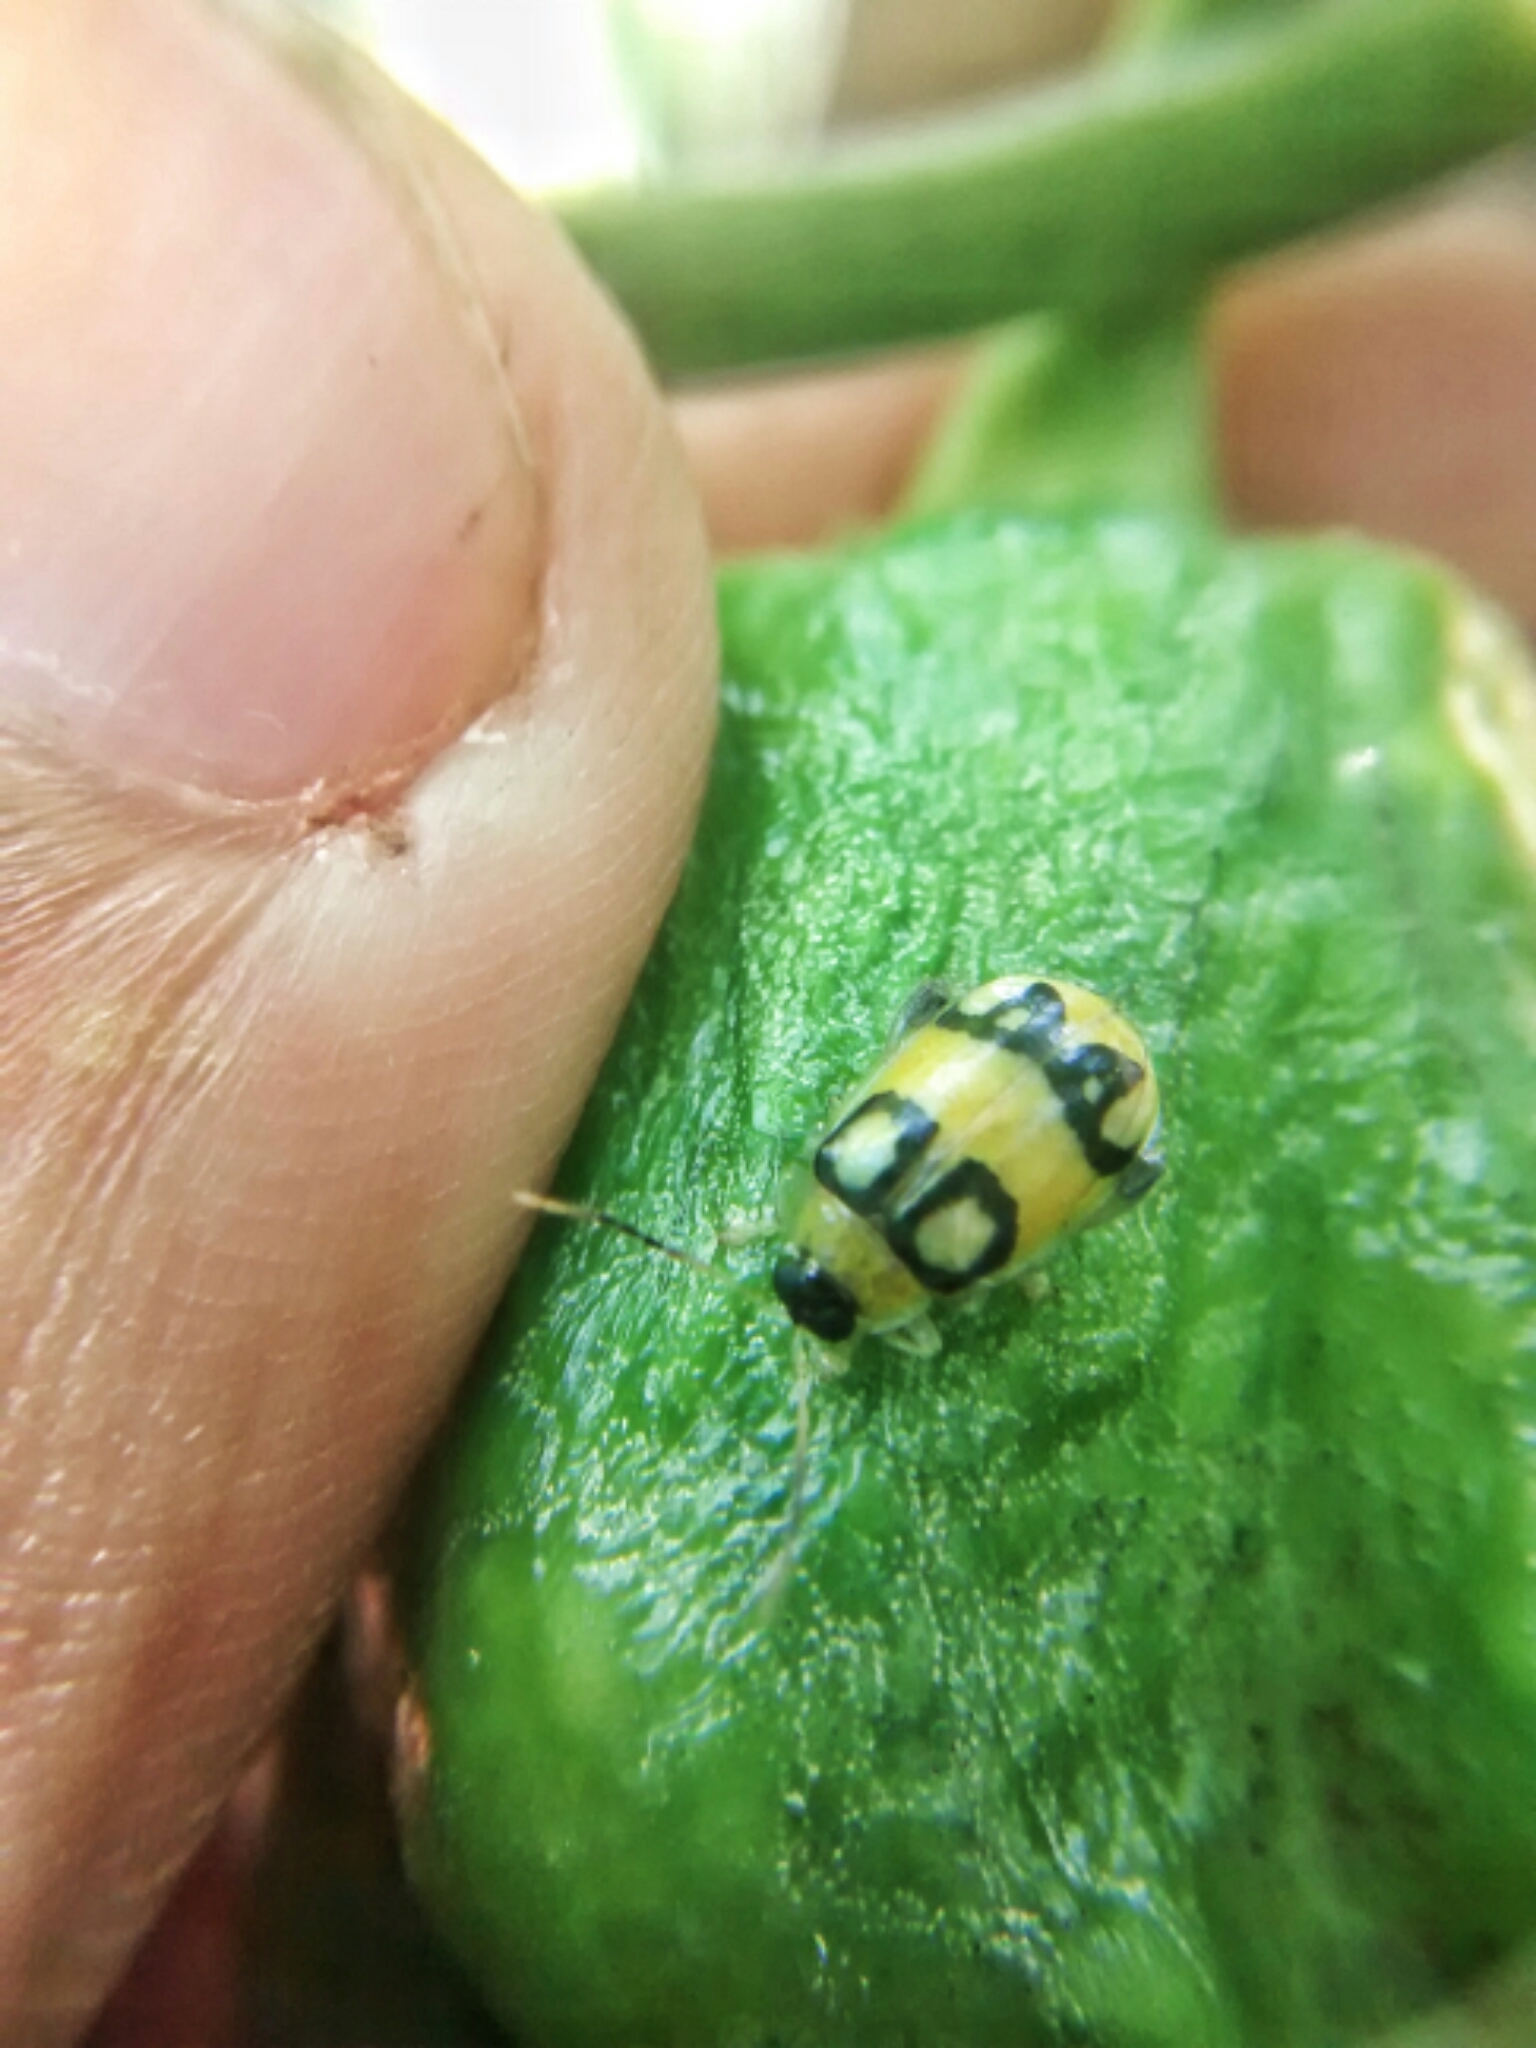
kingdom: Animalia
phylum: Arthropoda
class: Insecta
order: Coleoptera
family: Chrysomelidae
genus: Walterianella
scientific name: Walterianella
